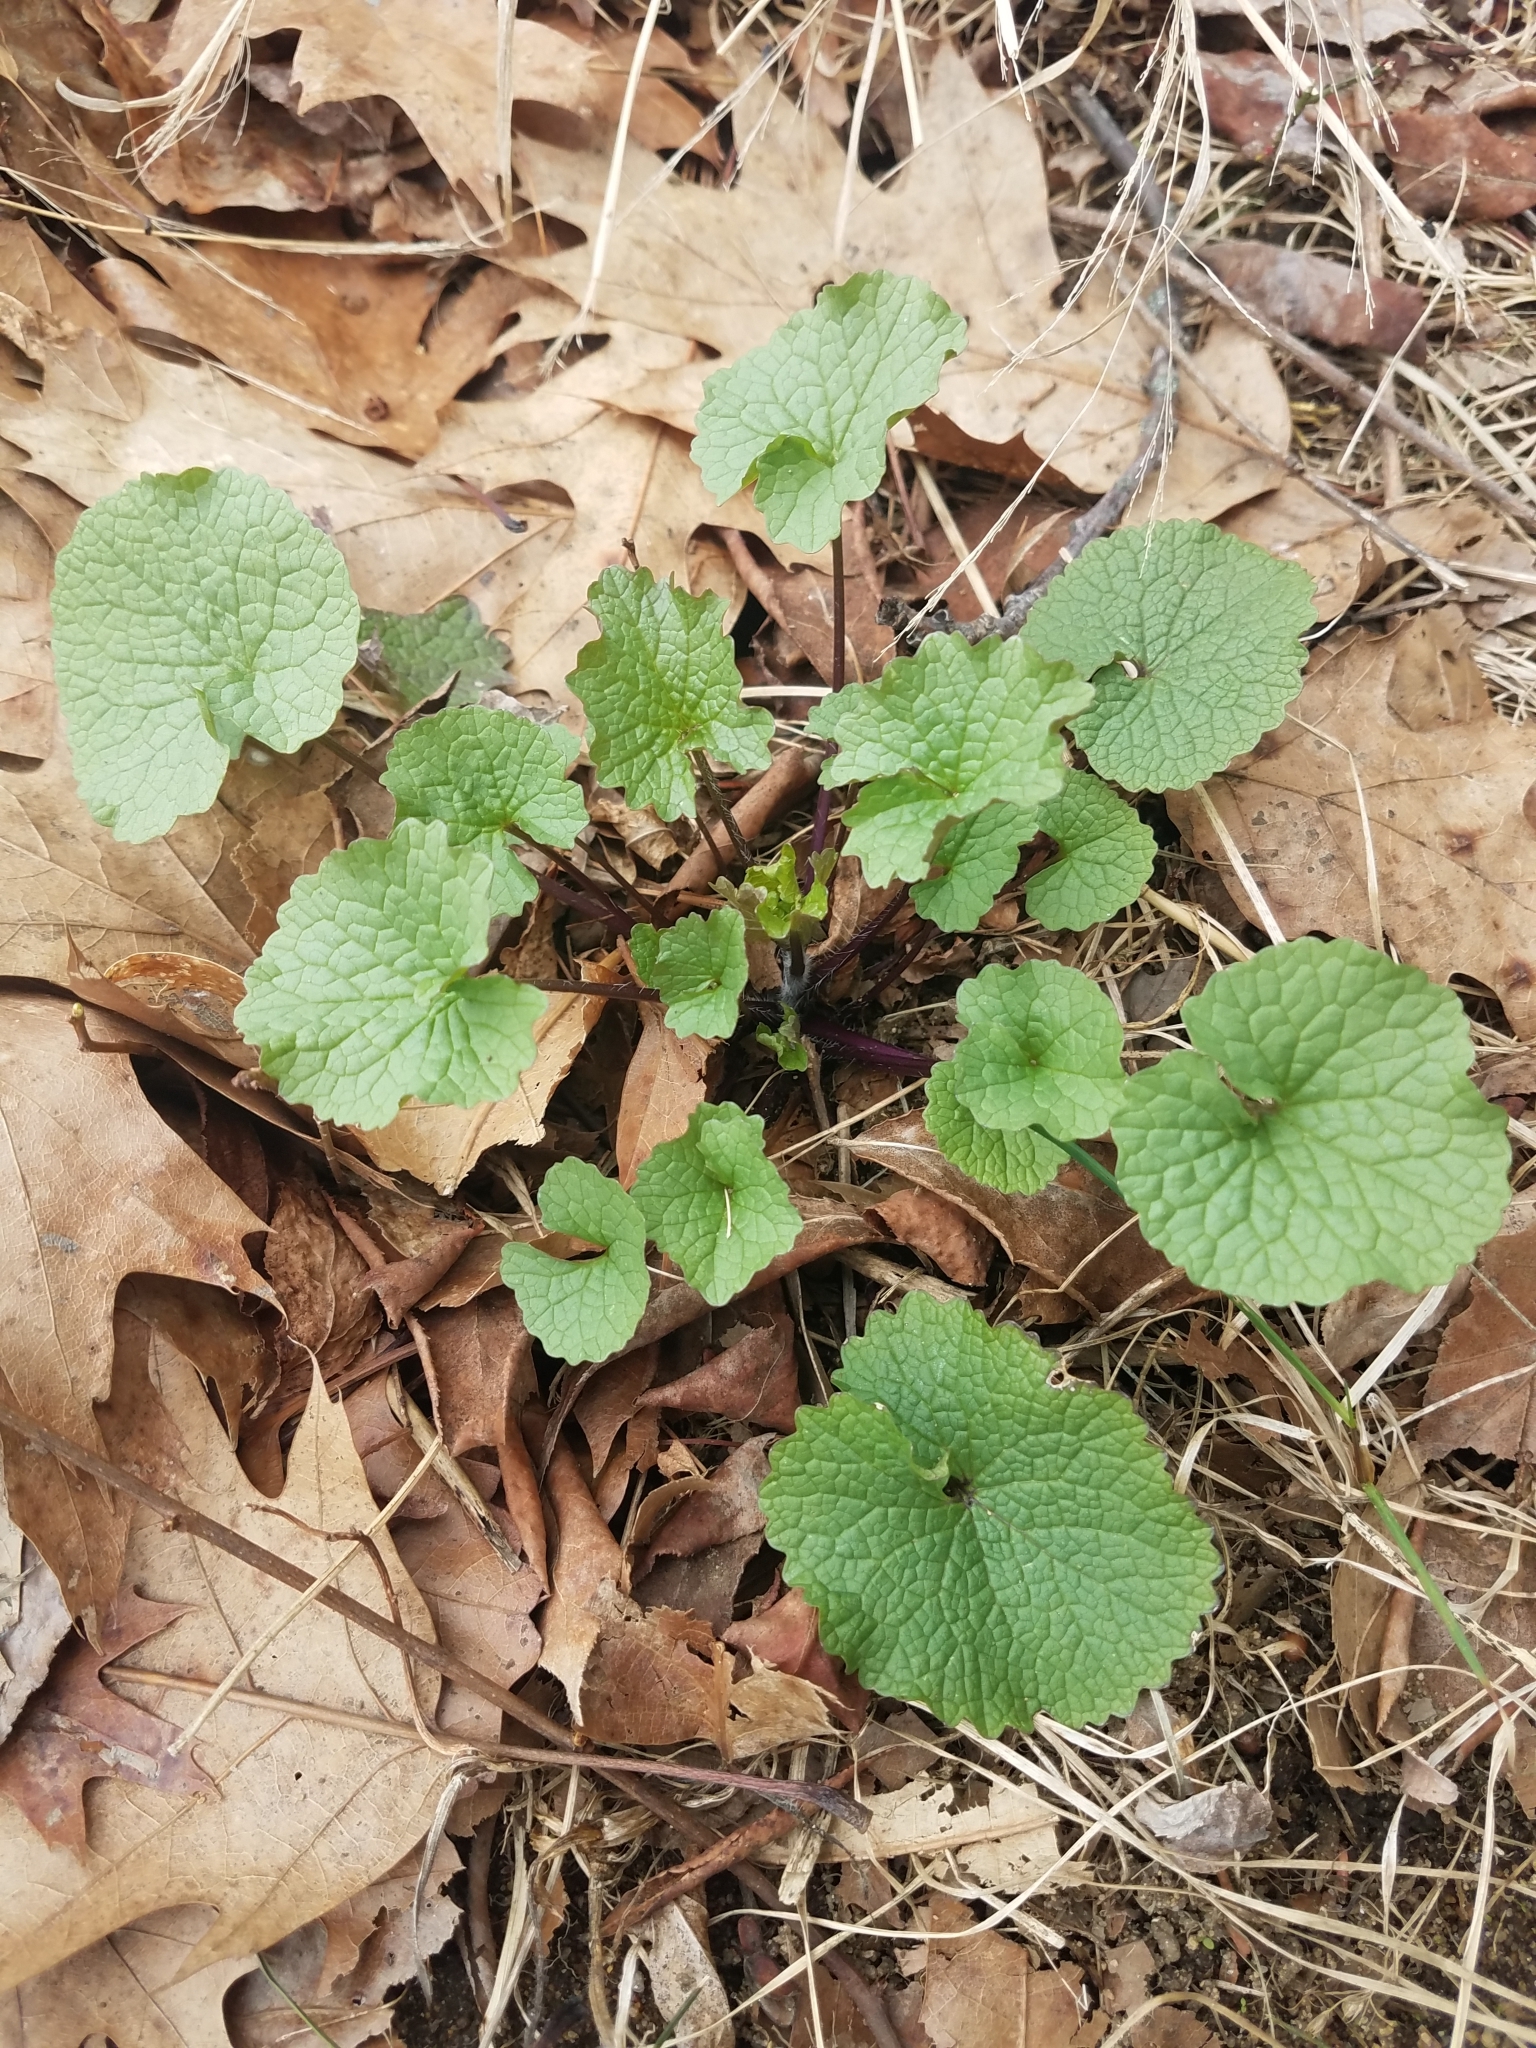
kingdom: Plantae
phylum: Tracheophyta
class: Magnoliopsida
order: Brassicales
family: Brassicaceae
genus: Alliaria
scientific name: Alliaria petiolata
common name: Garlic mustard
